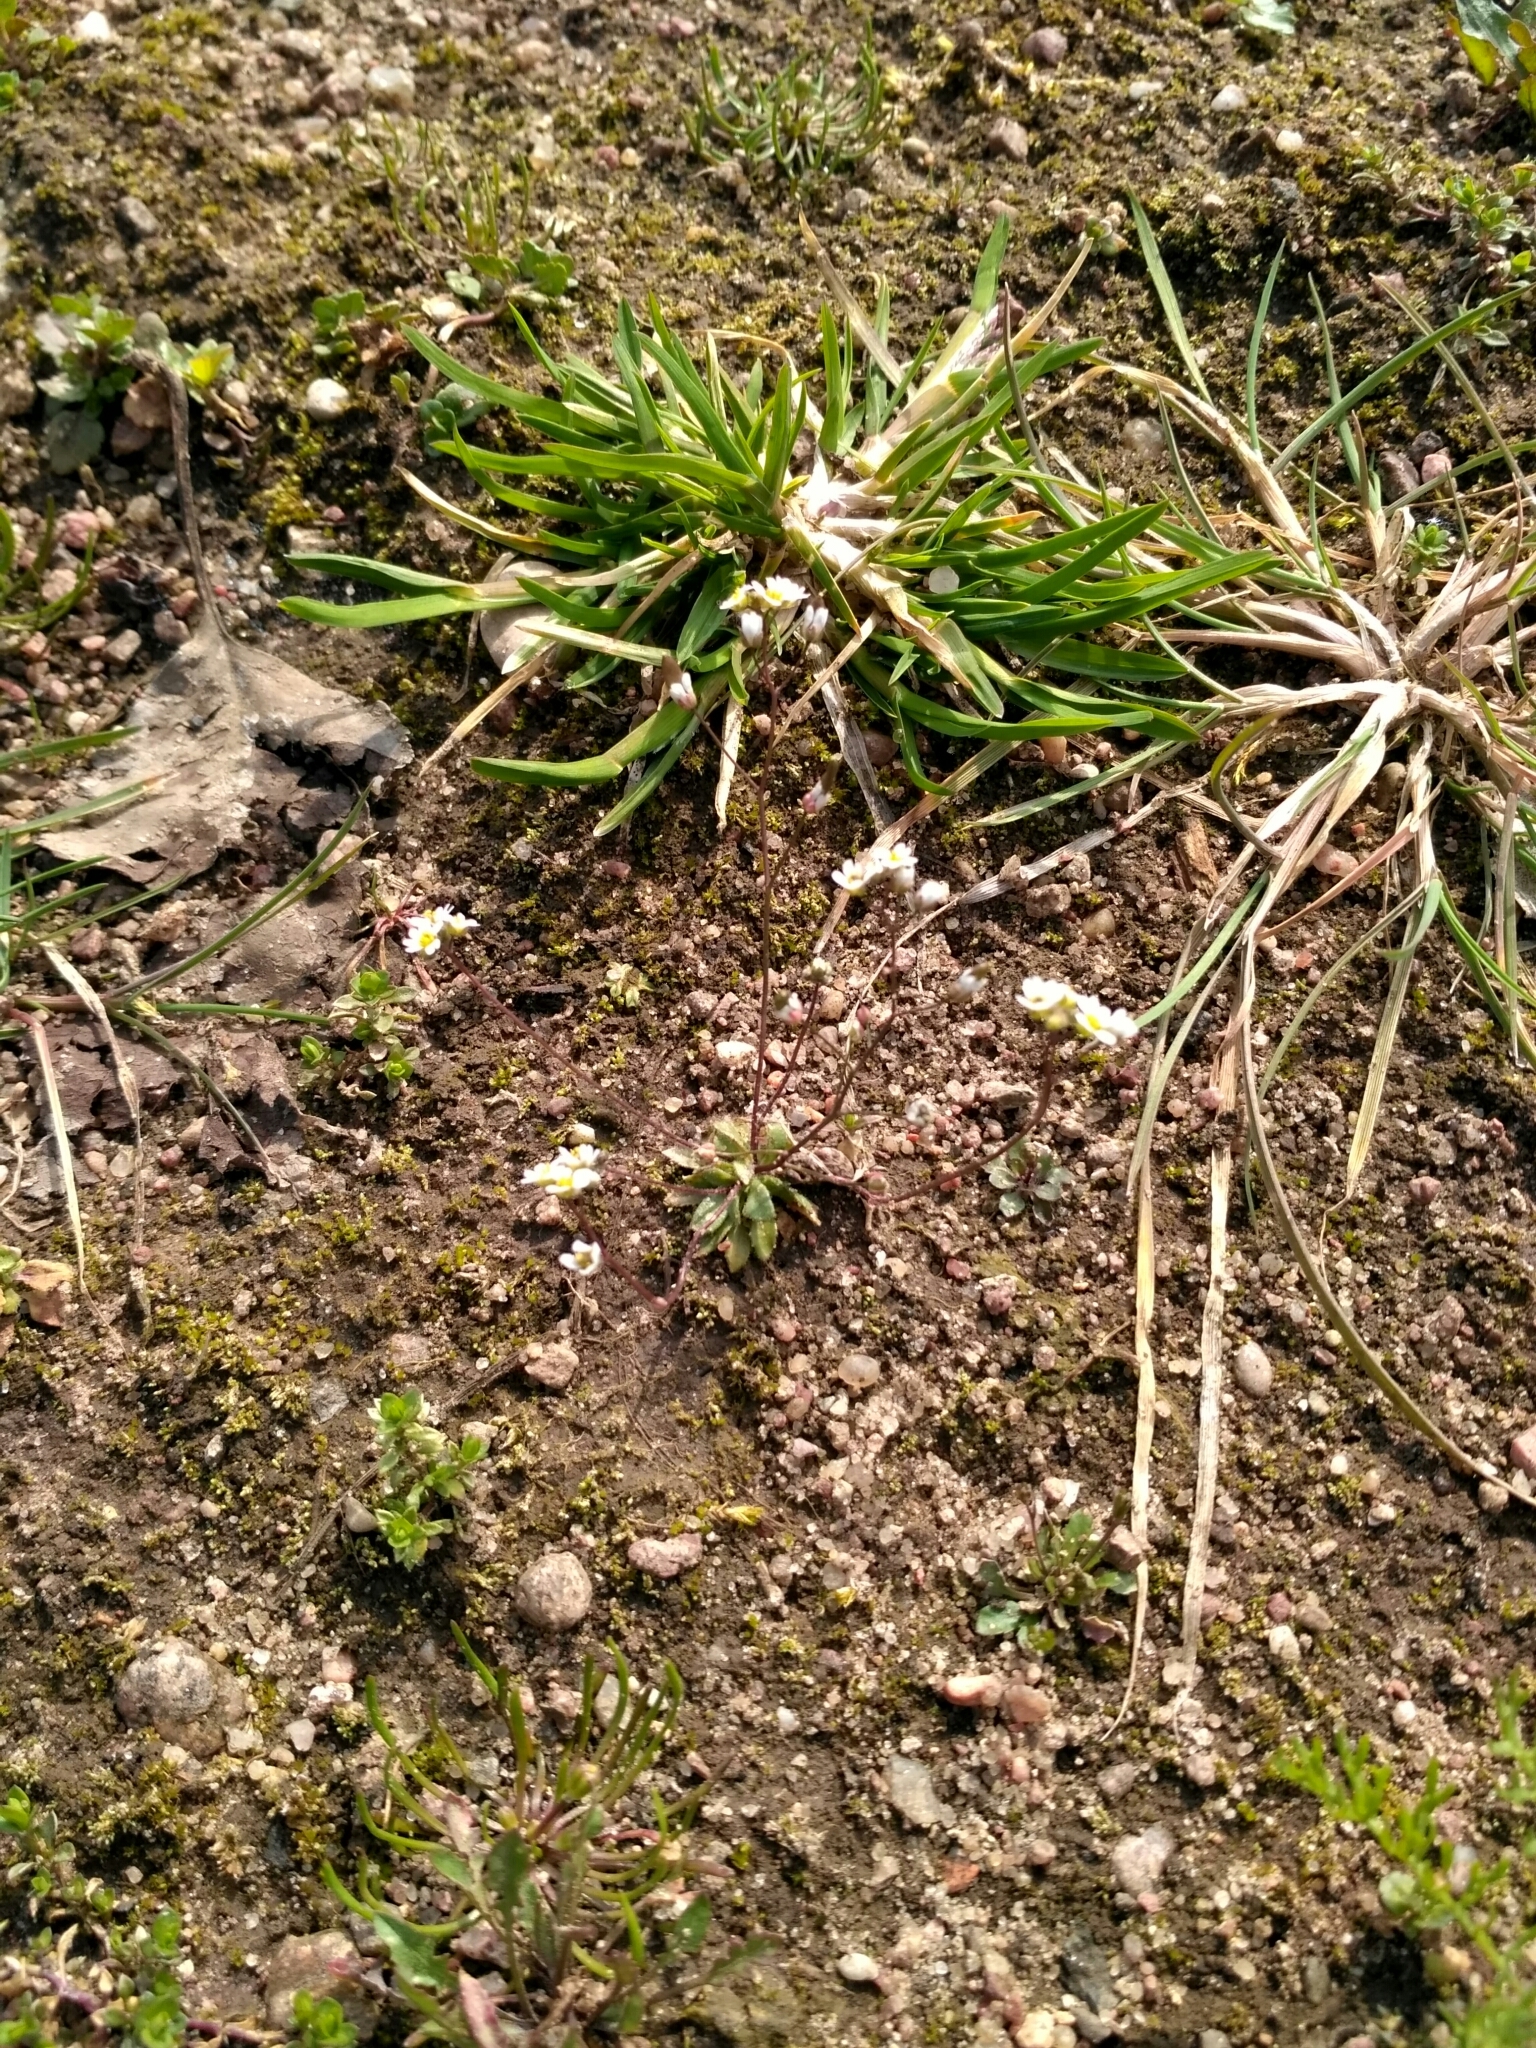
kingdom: Plantae
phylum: Tracheophyta
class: Magnoliopsida
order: Brassicales
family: Brassicaceae
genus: Draba
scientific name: Draba verna
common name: Spring draba
